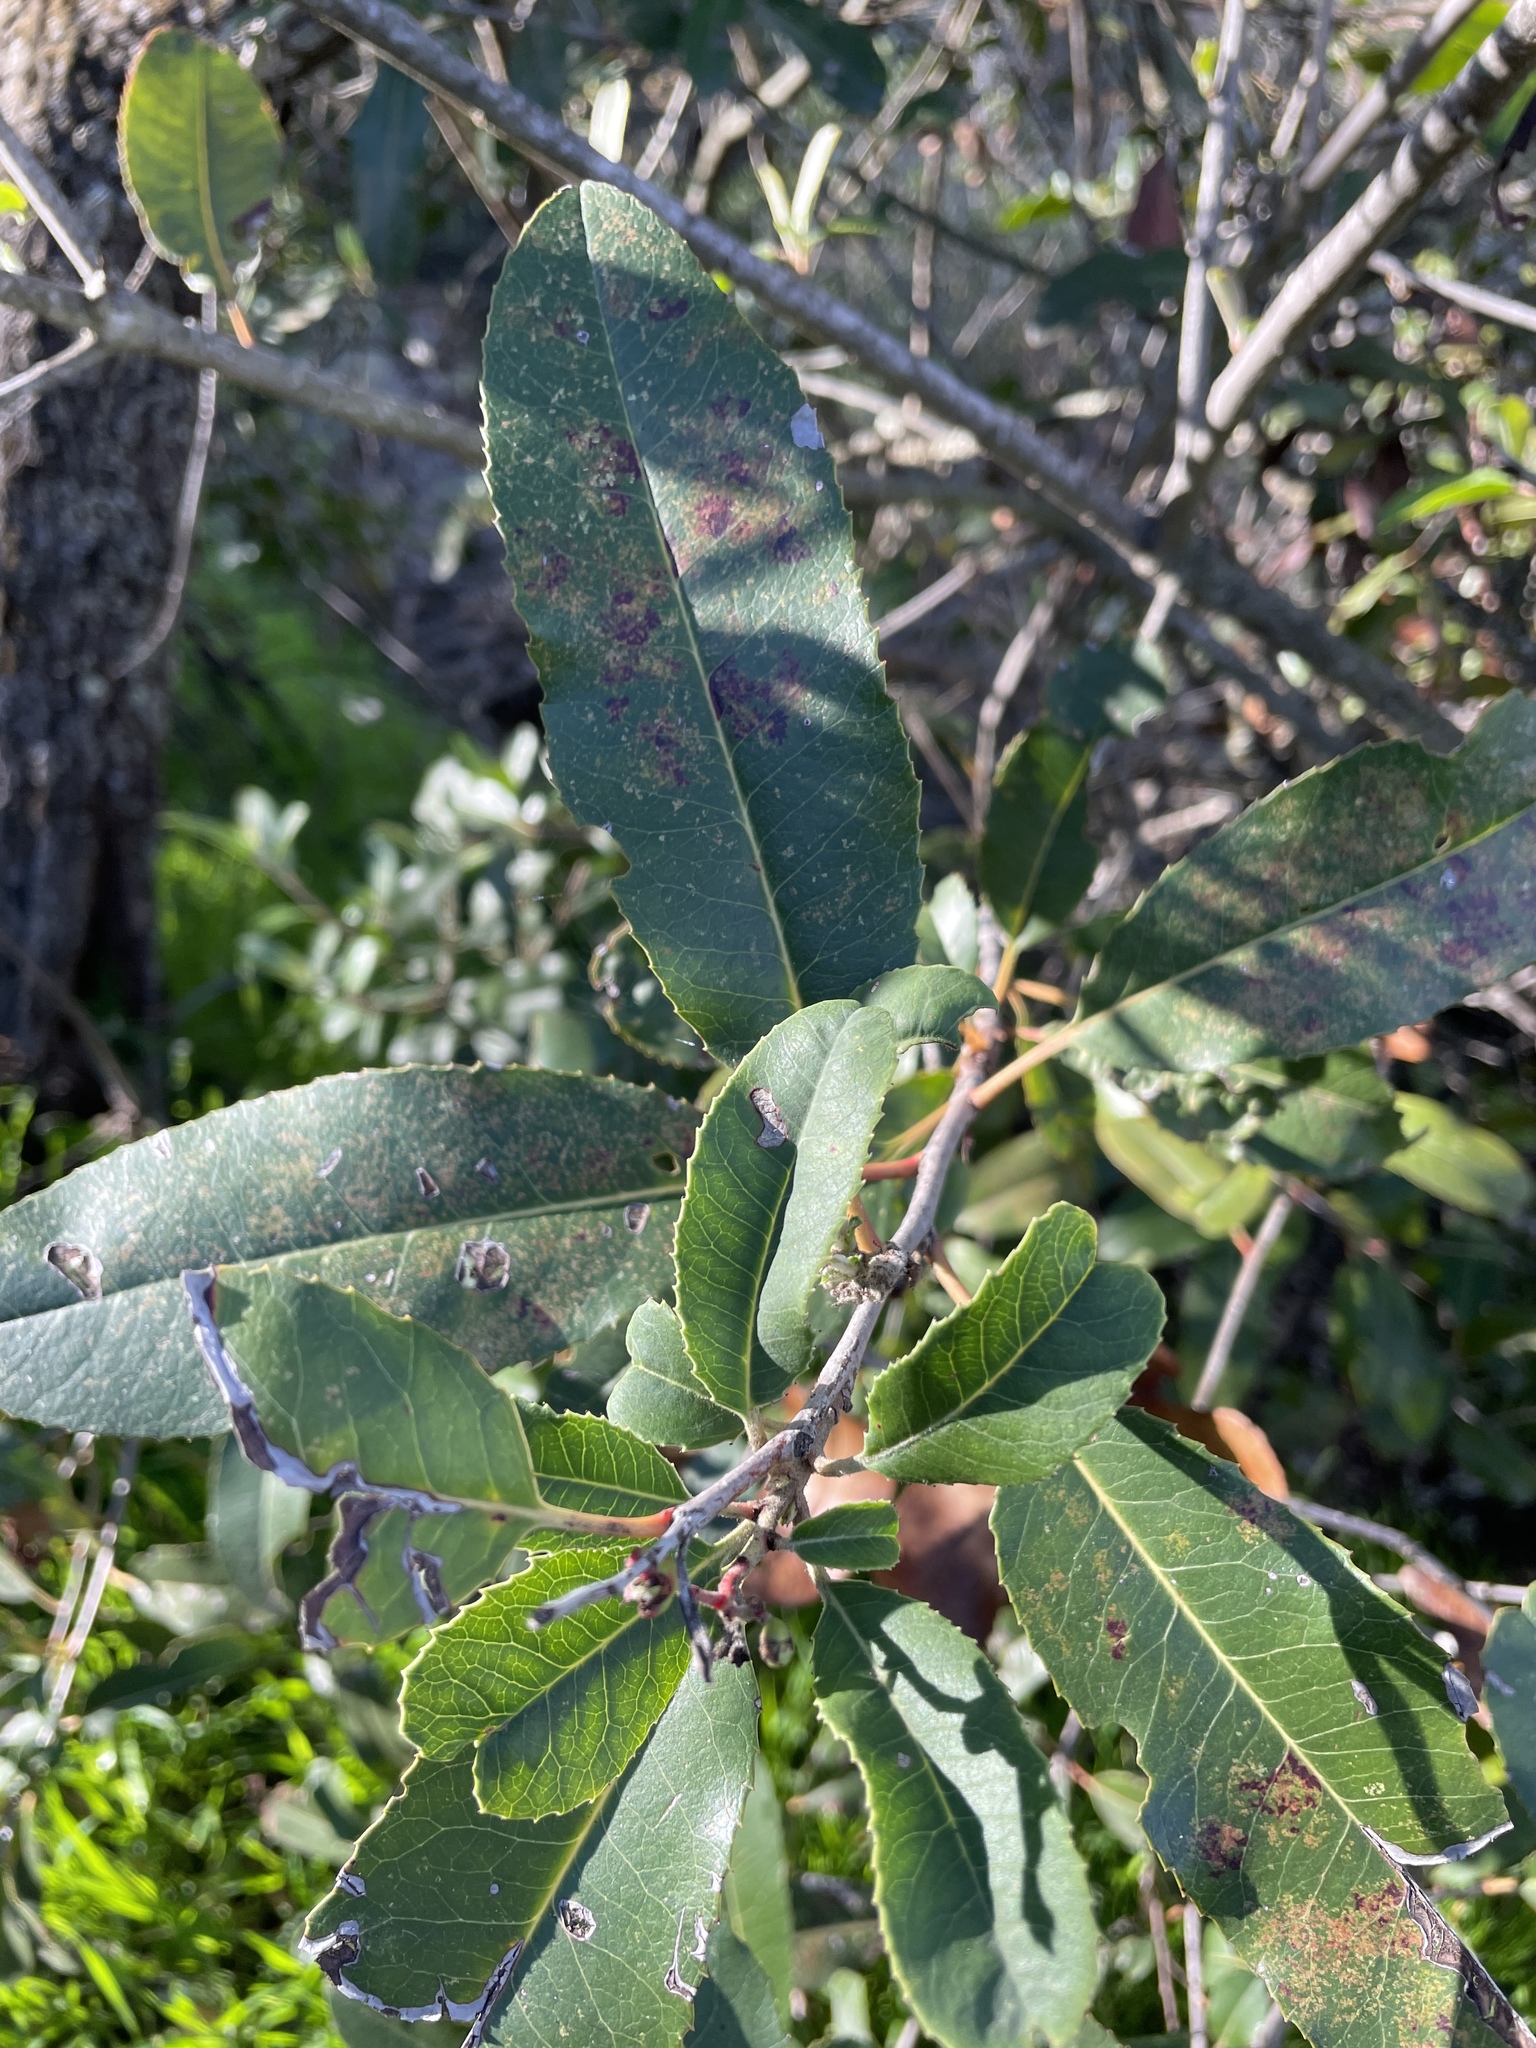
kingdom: Plantae
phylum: Tracheophyta
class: Magnoliopsida
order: Rosales
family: Rosaceae
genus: Heteromeles
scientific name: Heteromeles arbutifolia
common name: California-holly
